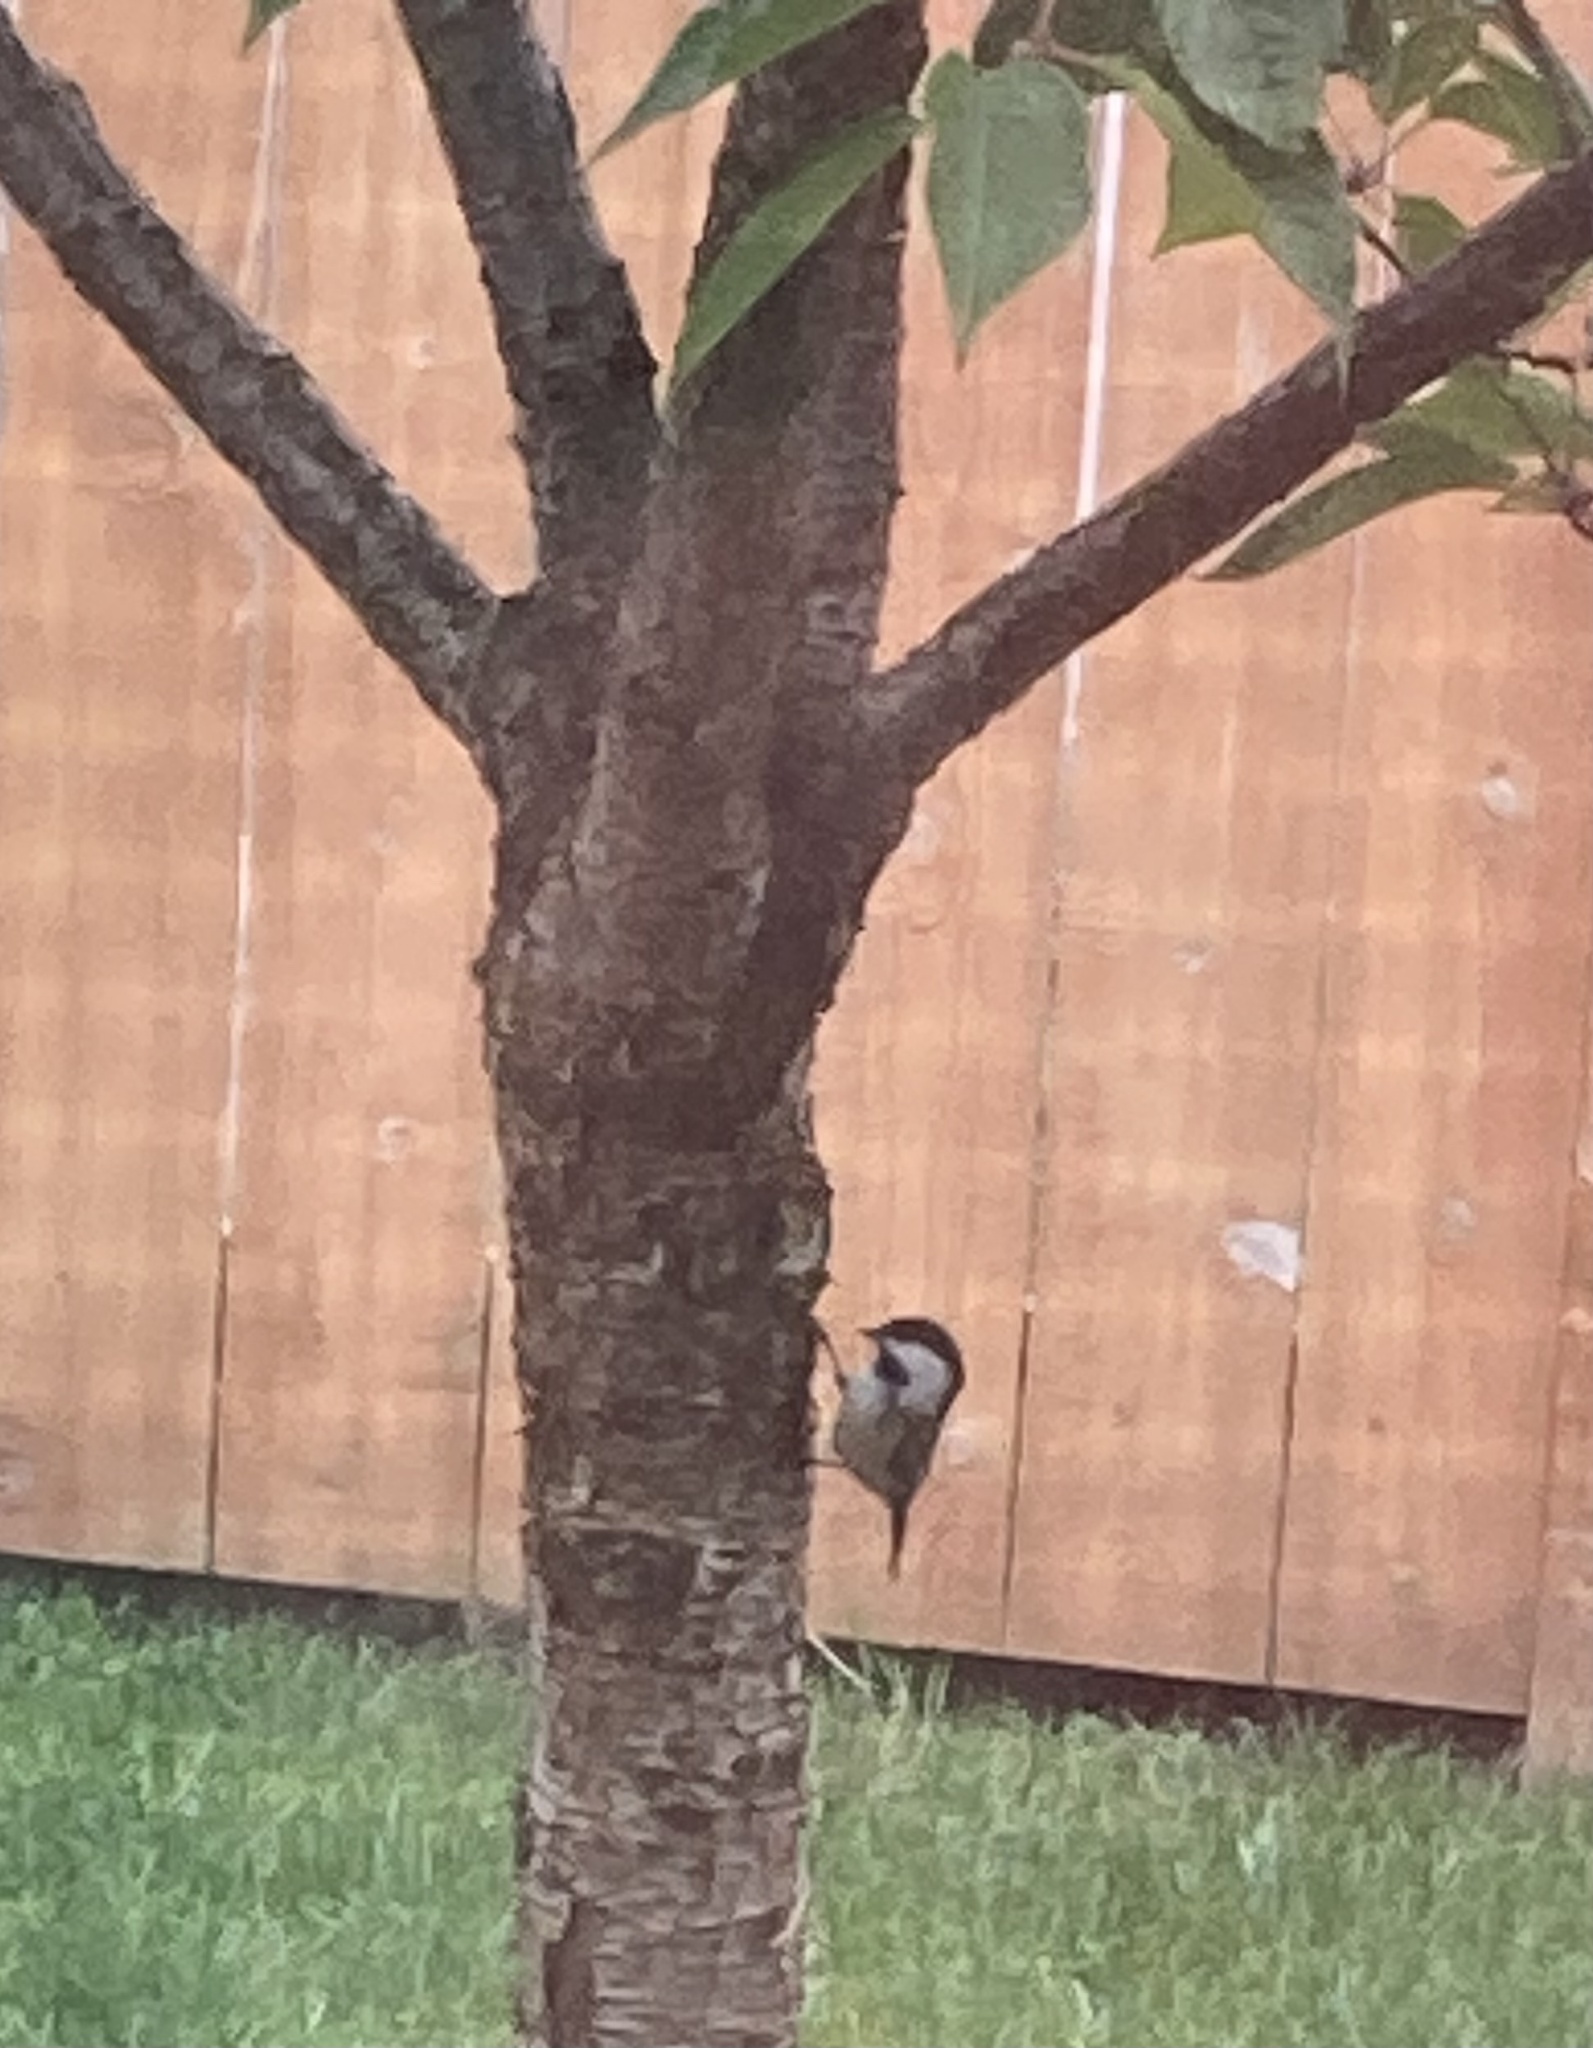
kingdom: Animalia
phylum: Chordata
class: Aves
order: Passeriformes
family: Paridae
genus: Poecile
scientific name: Poecile atricapillus
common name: Black-capped chickadee
